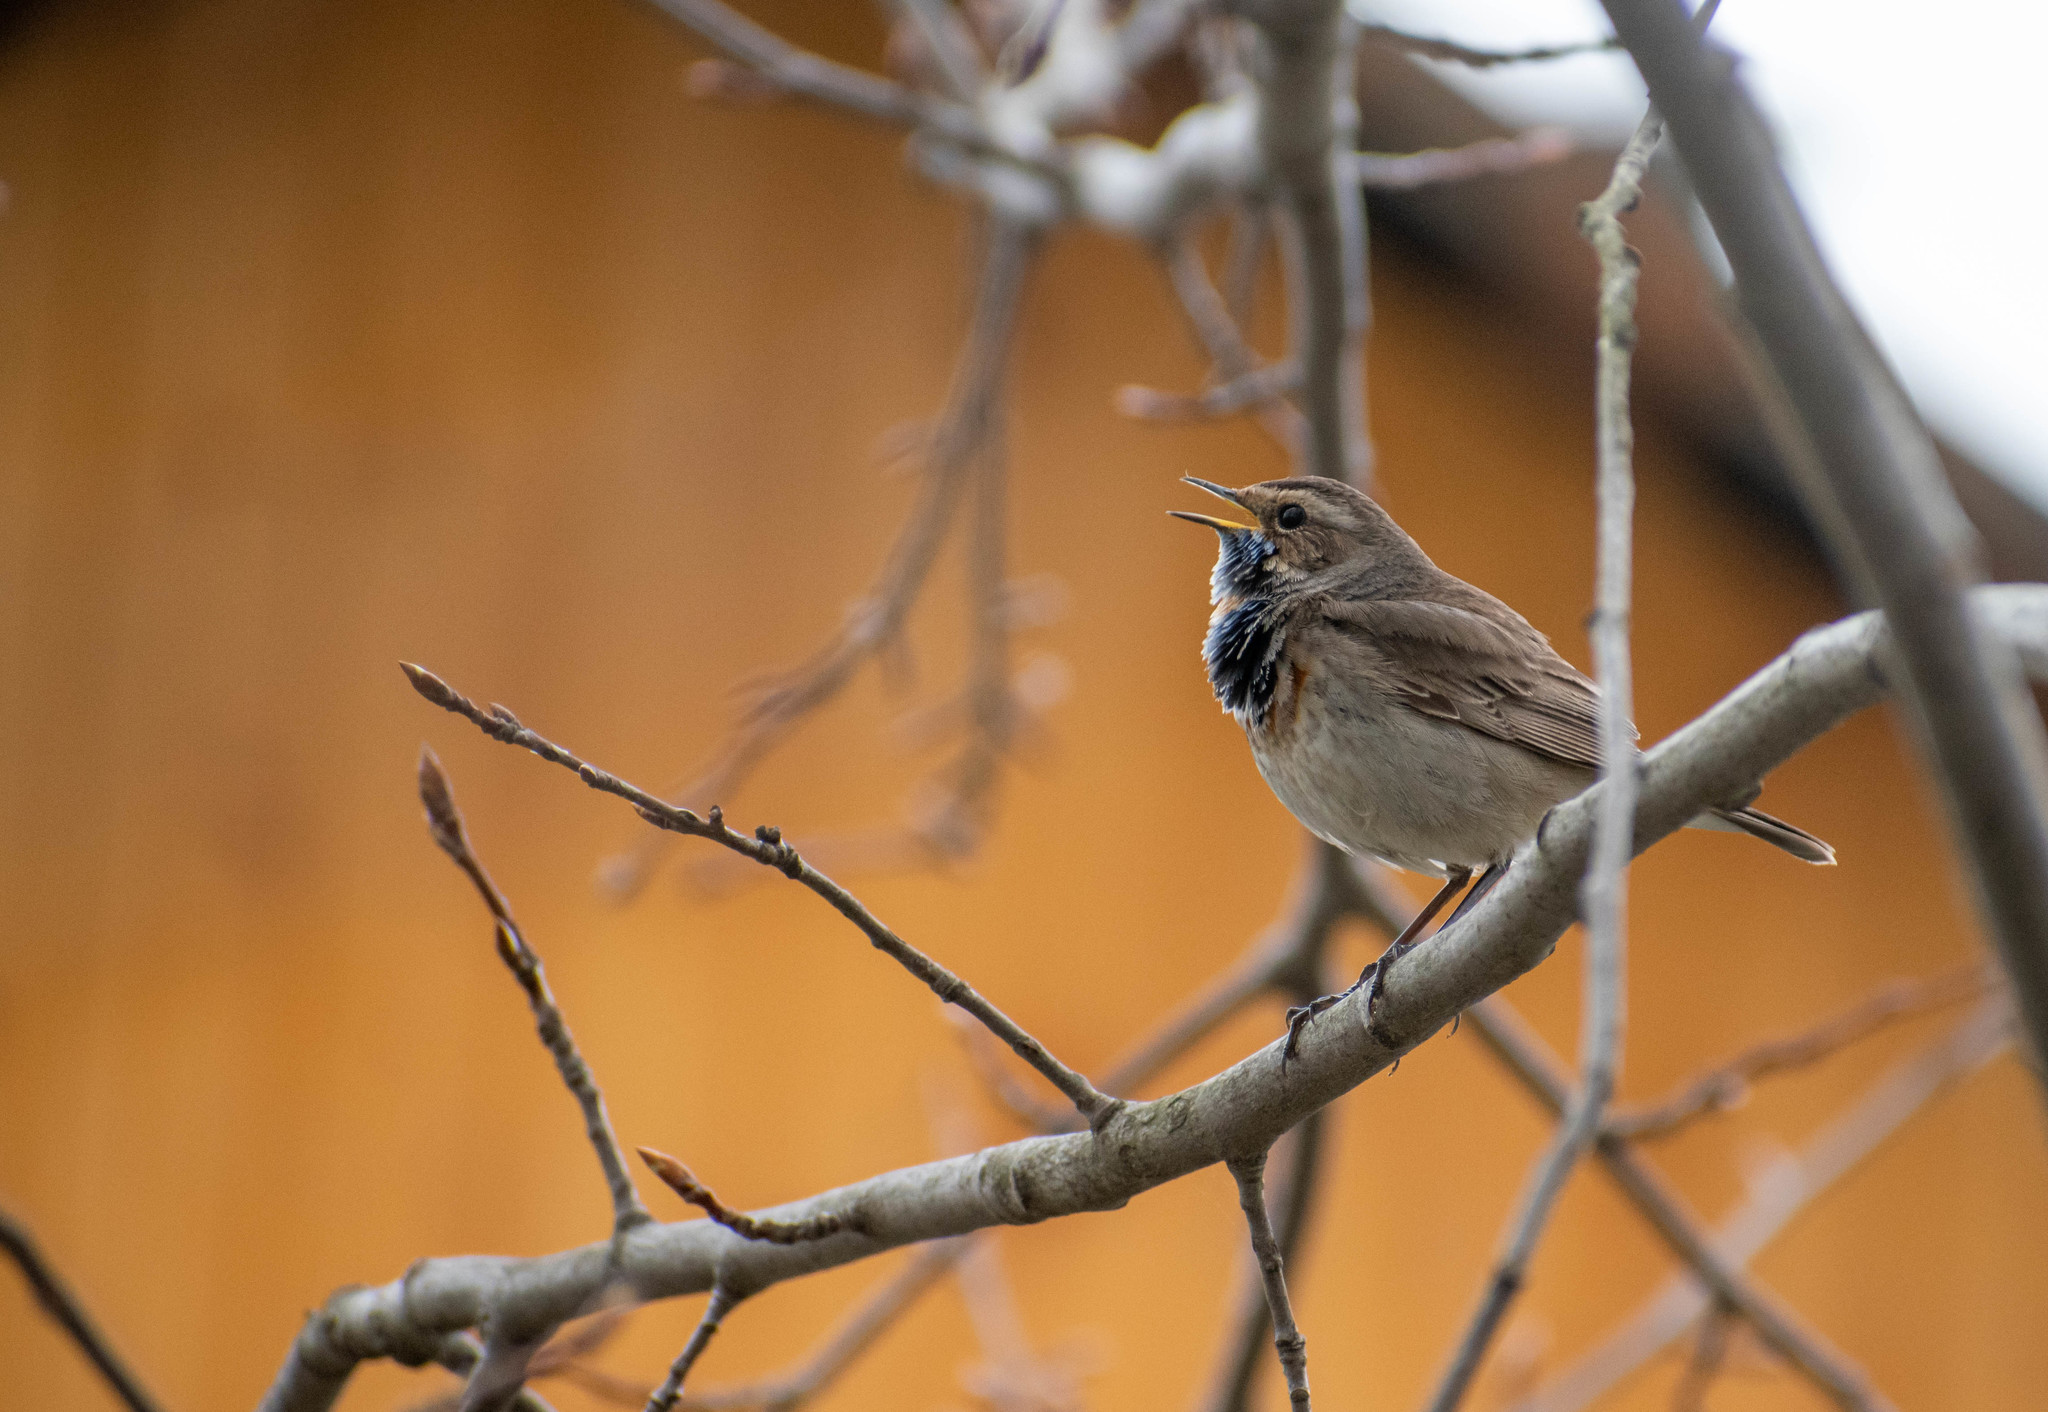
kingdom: Animalia
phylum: Chordata
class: Aves
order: Passeriformes
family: Muscicapidae
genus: Luscinia
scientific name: Luscinia svecica
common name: Bluethroat
